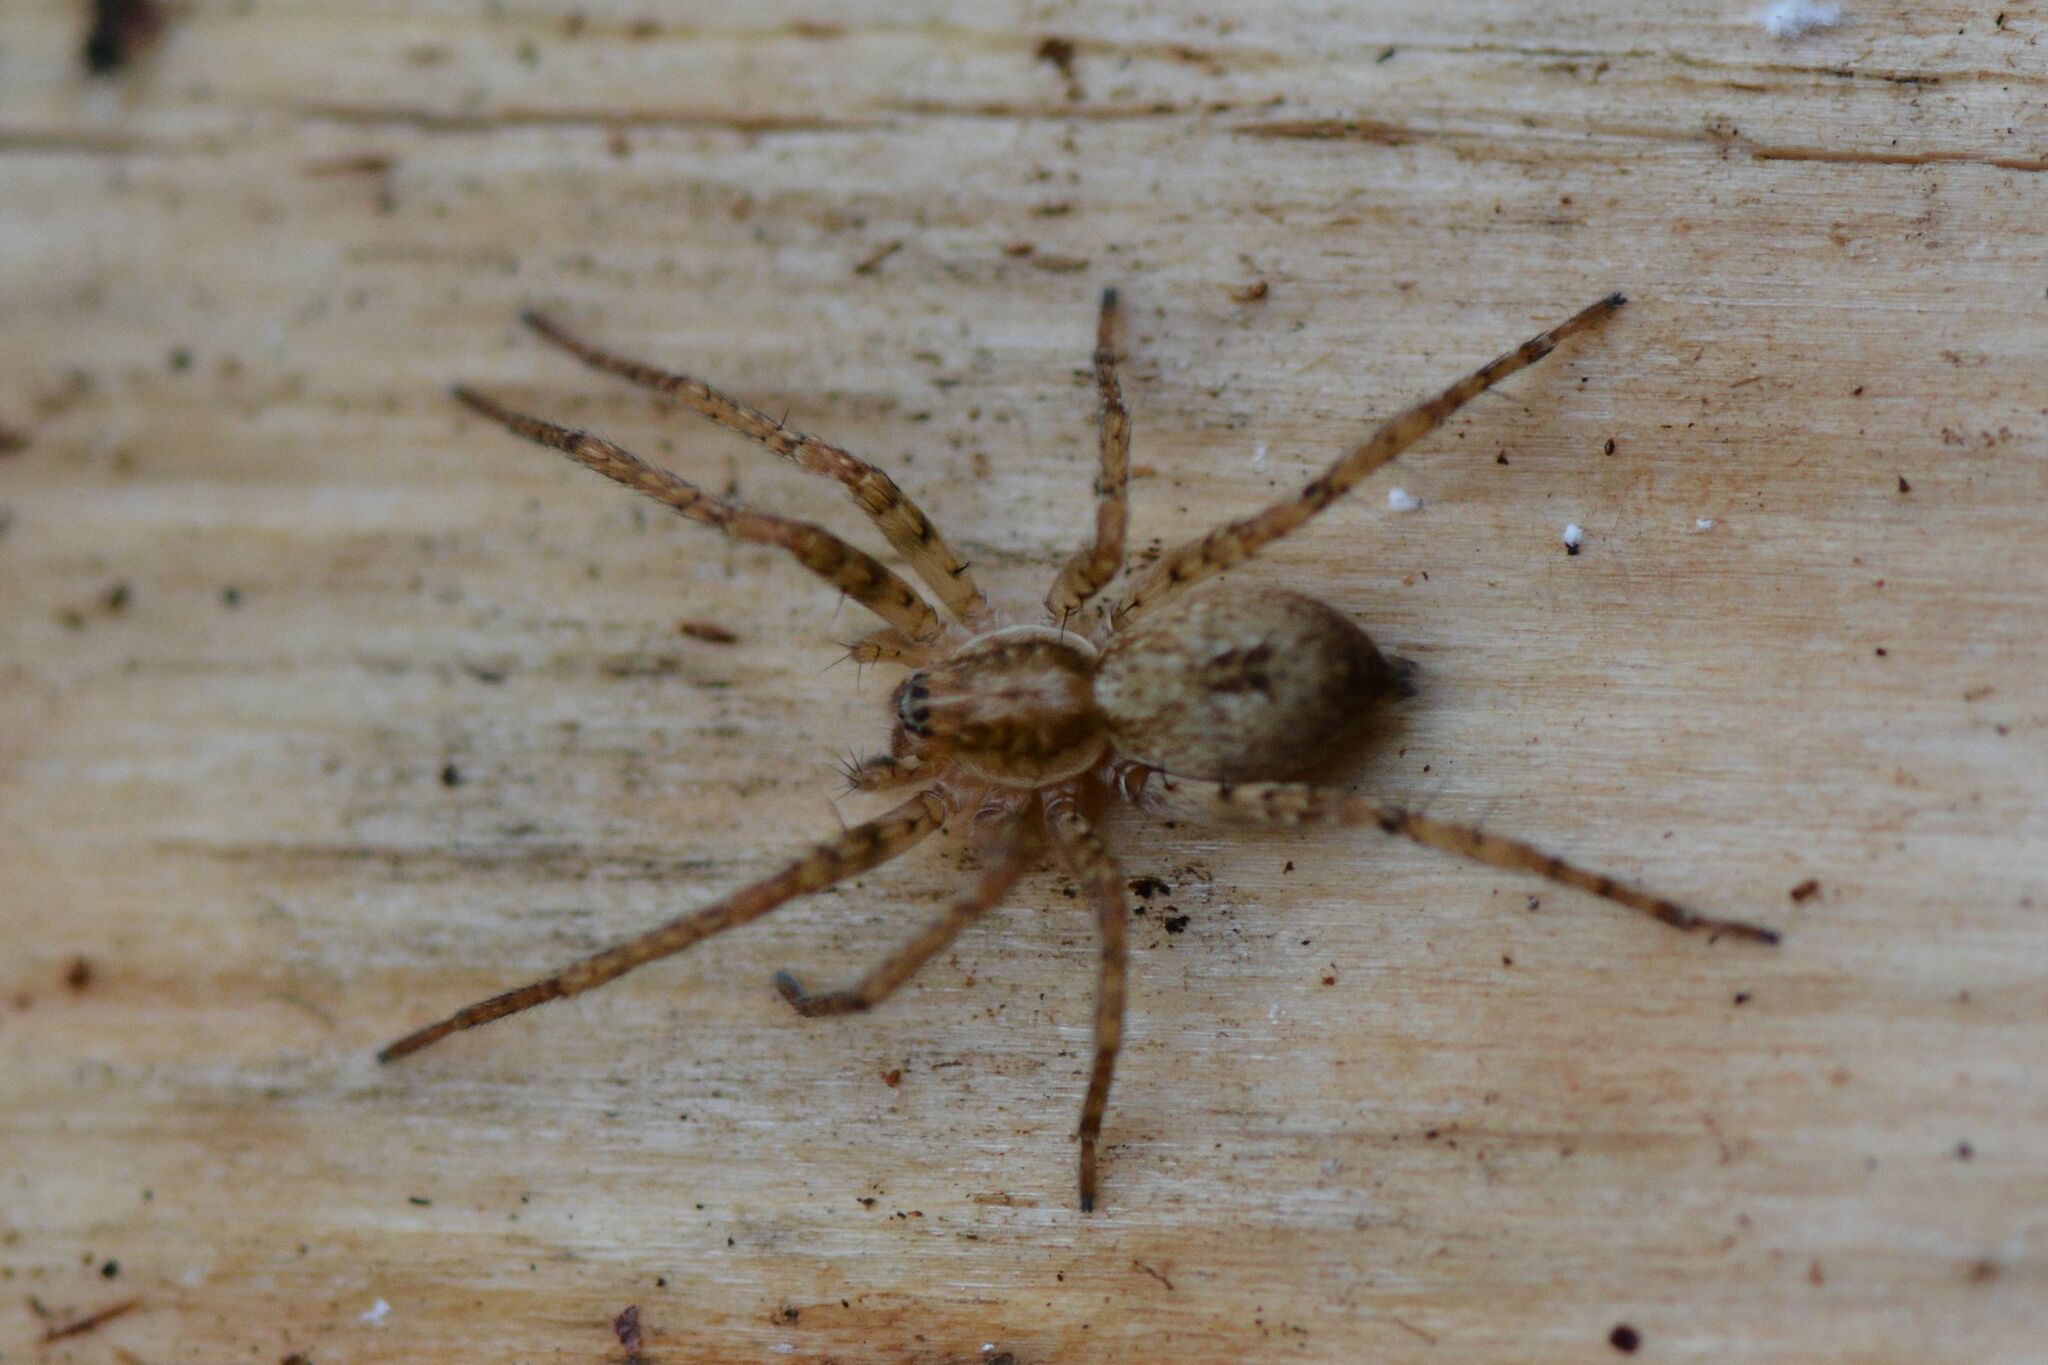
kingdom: Animalia
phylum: Arthropoda
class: Arachnida
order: Araneae
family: Anyphaenidae
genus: Anyphaena
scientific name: Anyphaena accentuata
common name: Buzzing spider
